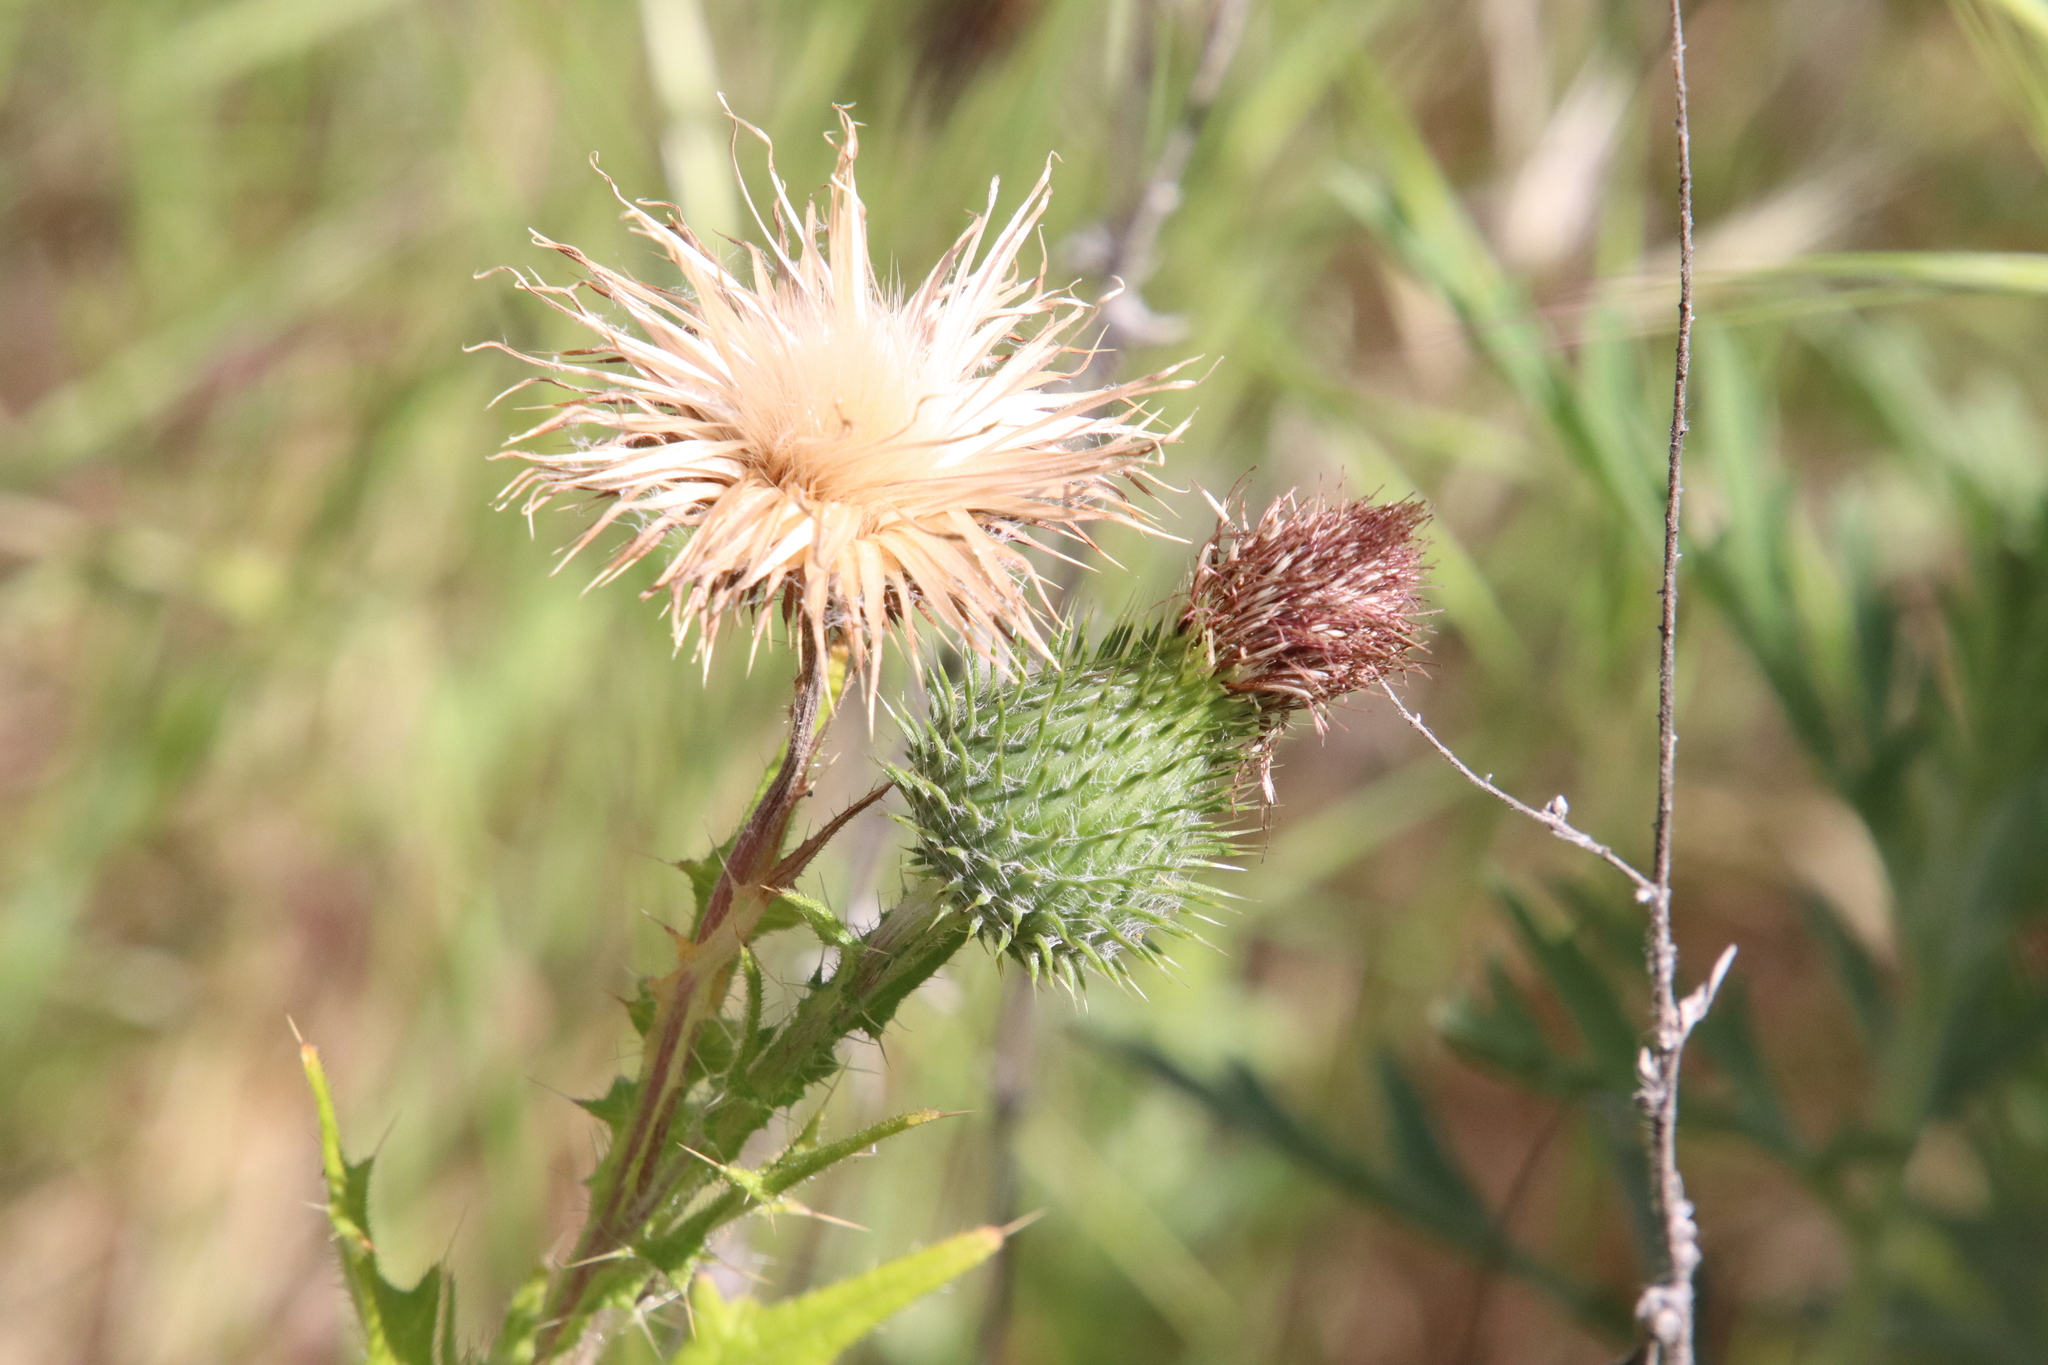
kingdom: Plantae
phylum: Tracheophyta
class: Magnoliopsida
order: Asterales
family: Asteraceae
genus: Cirsium
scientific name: Cirsium vulgare
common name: Bull thistle
